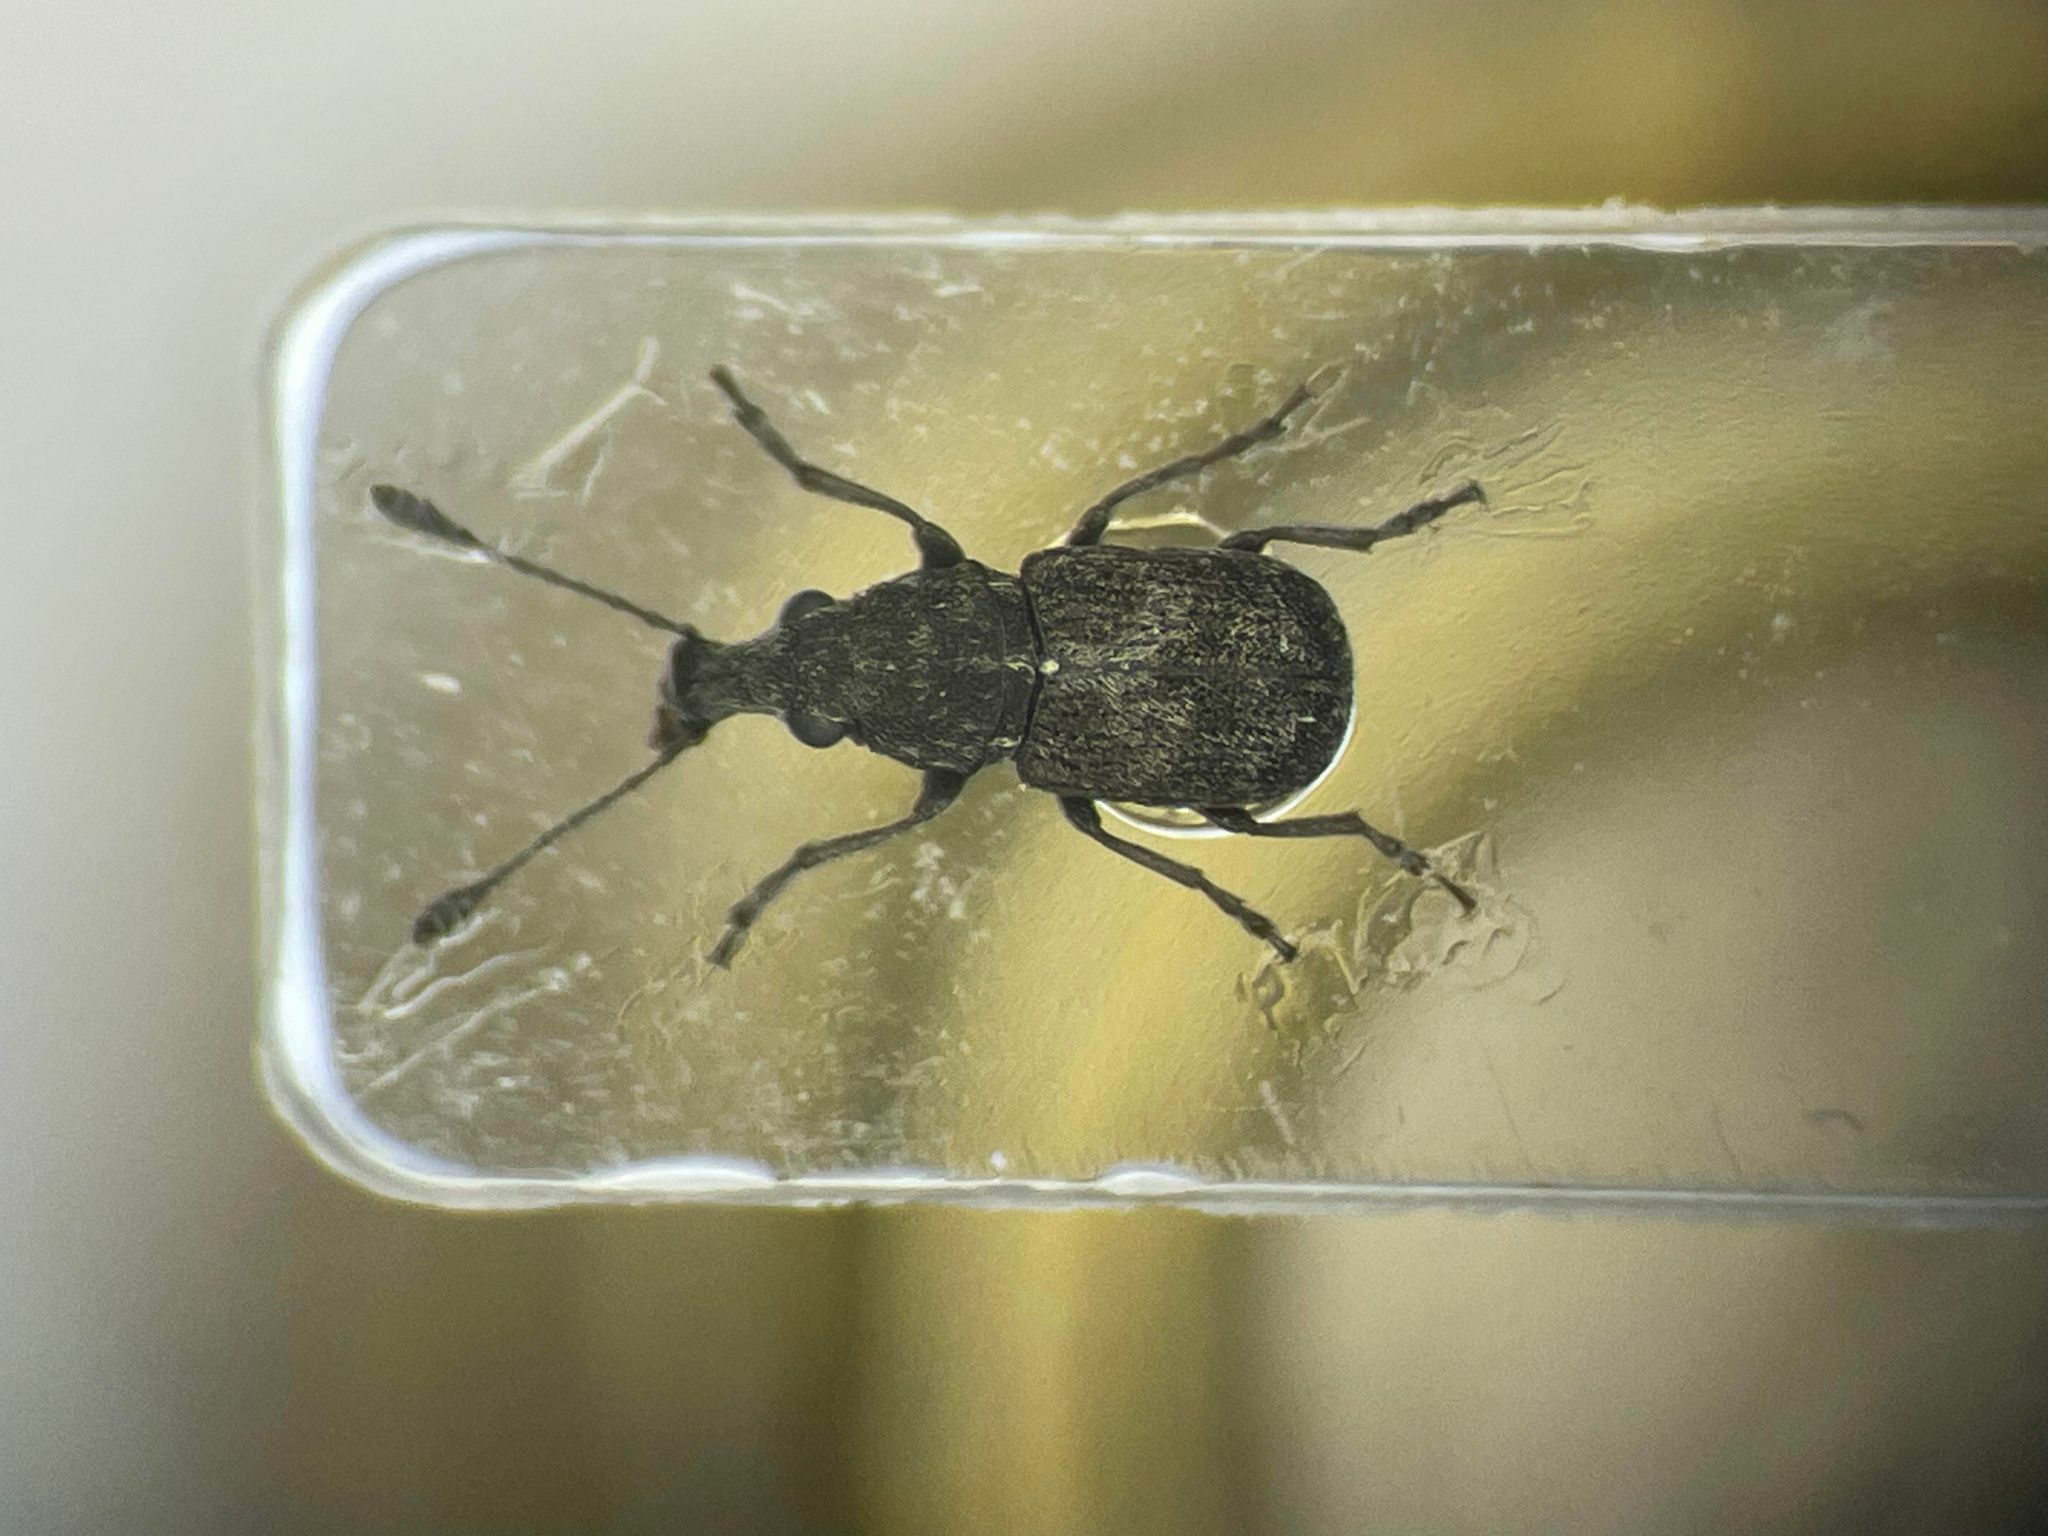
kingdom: Animalia
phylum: Arthropoda
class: Insecta
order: Coleoptera
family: Anthribidae
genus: Allandrus
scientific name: Allandrus bifasciatus
